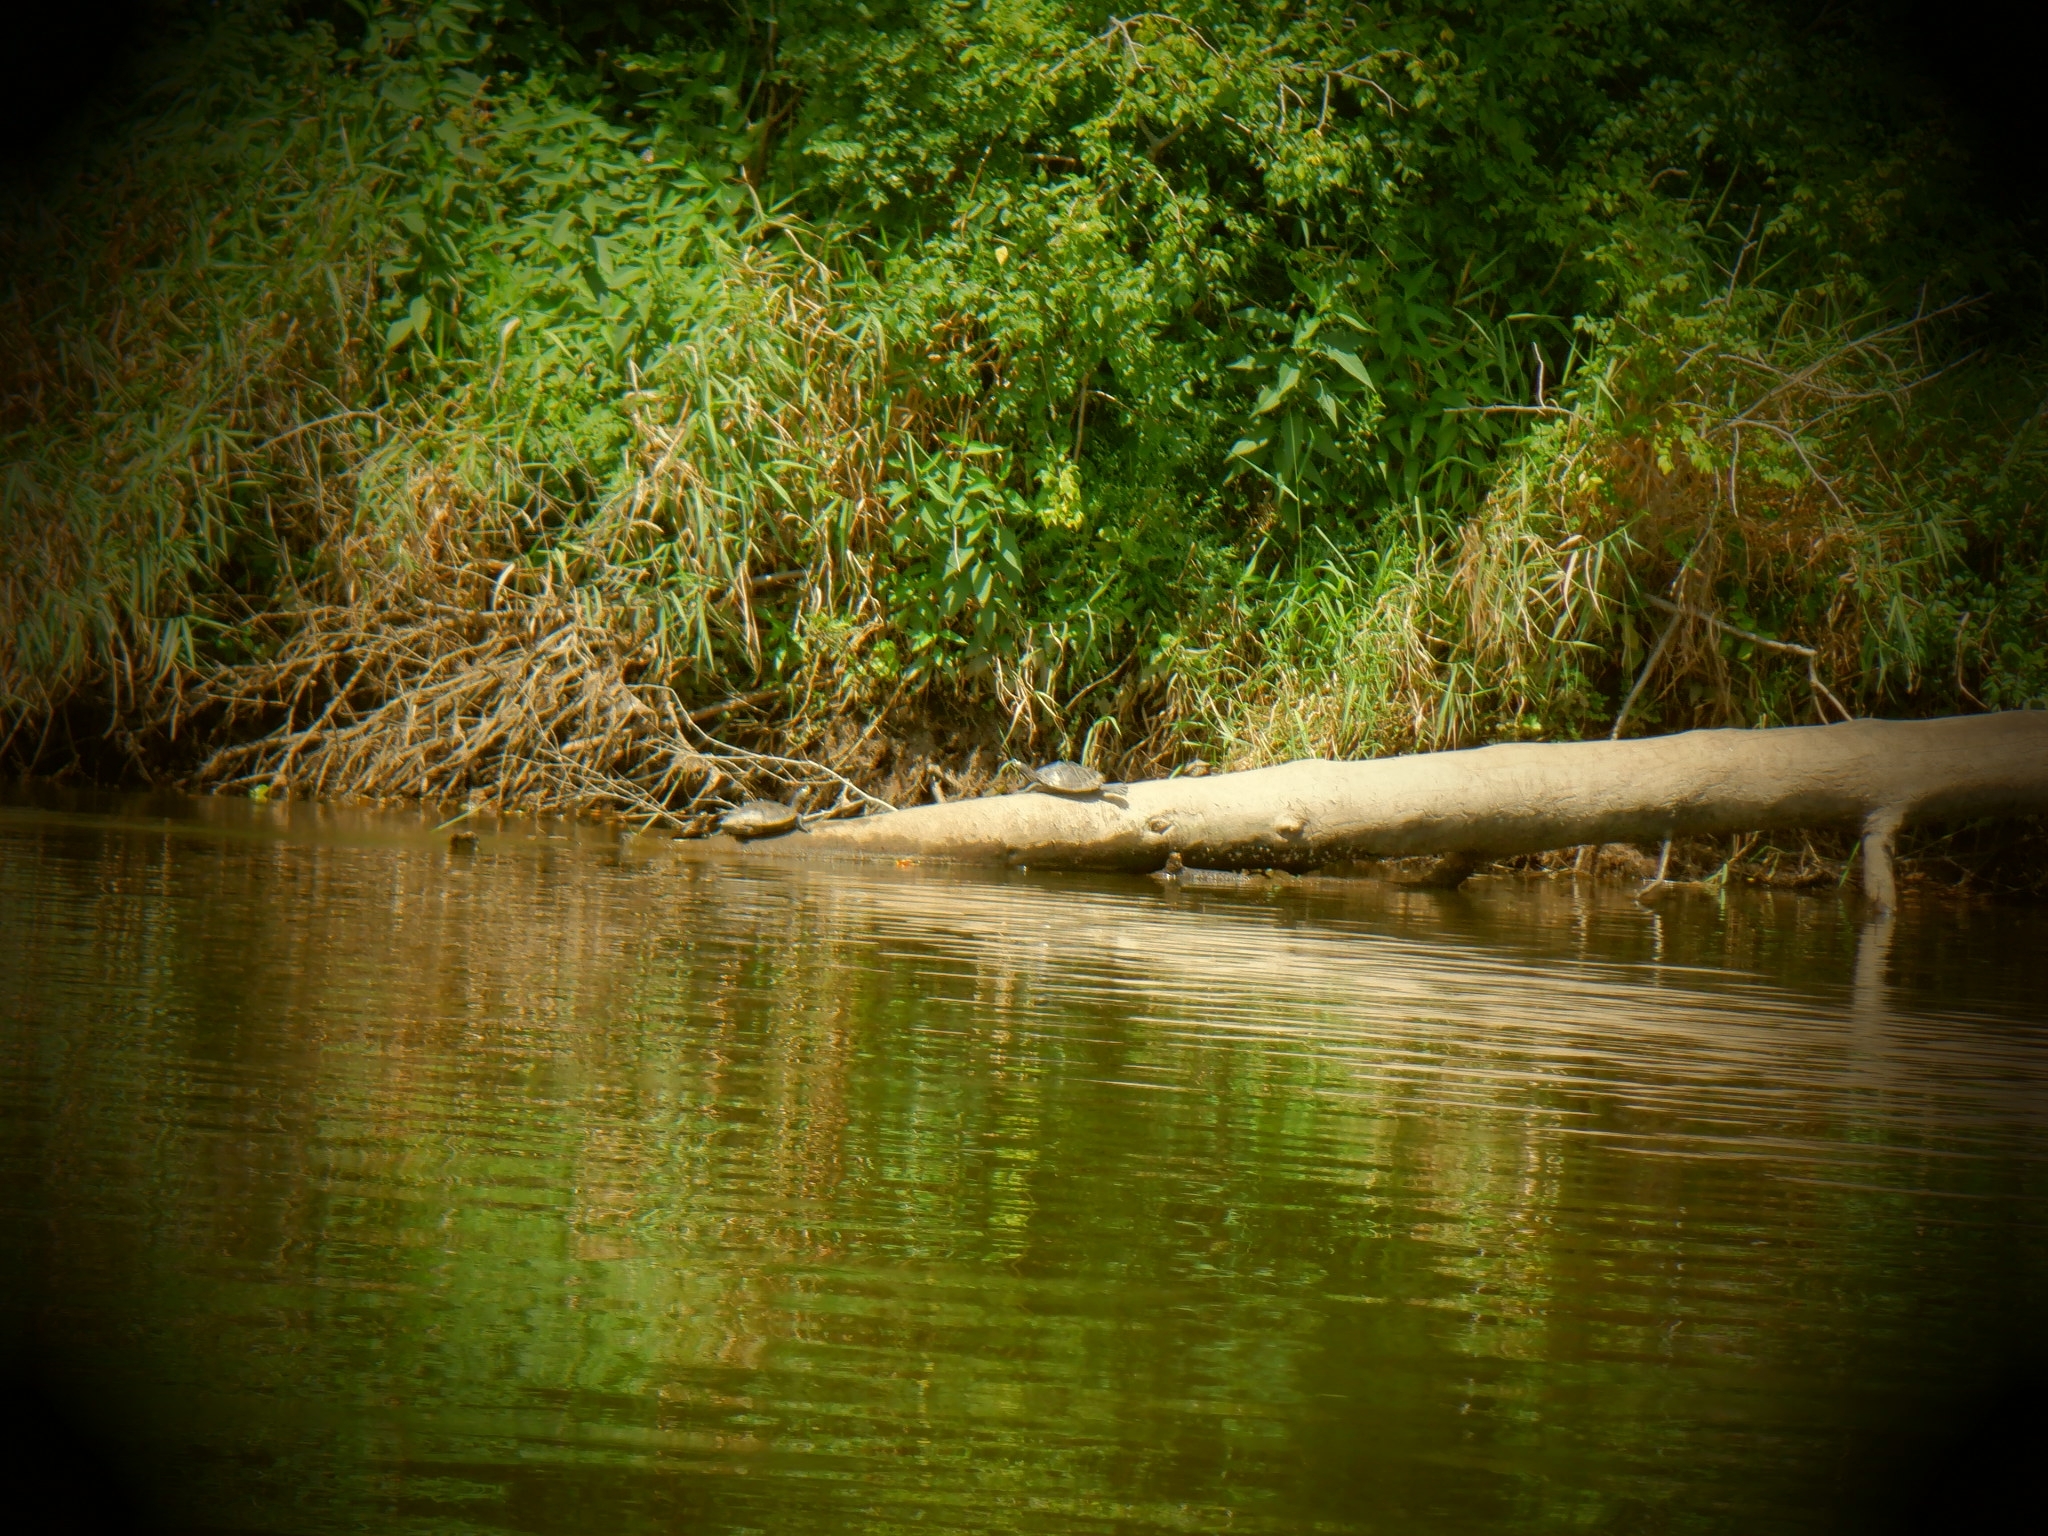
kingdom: Animalia
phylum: Chordata
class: Testudines
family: Emydidae
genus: Graptemys
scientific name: Graptemys ouachitensis
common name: Ouachita map turtle
